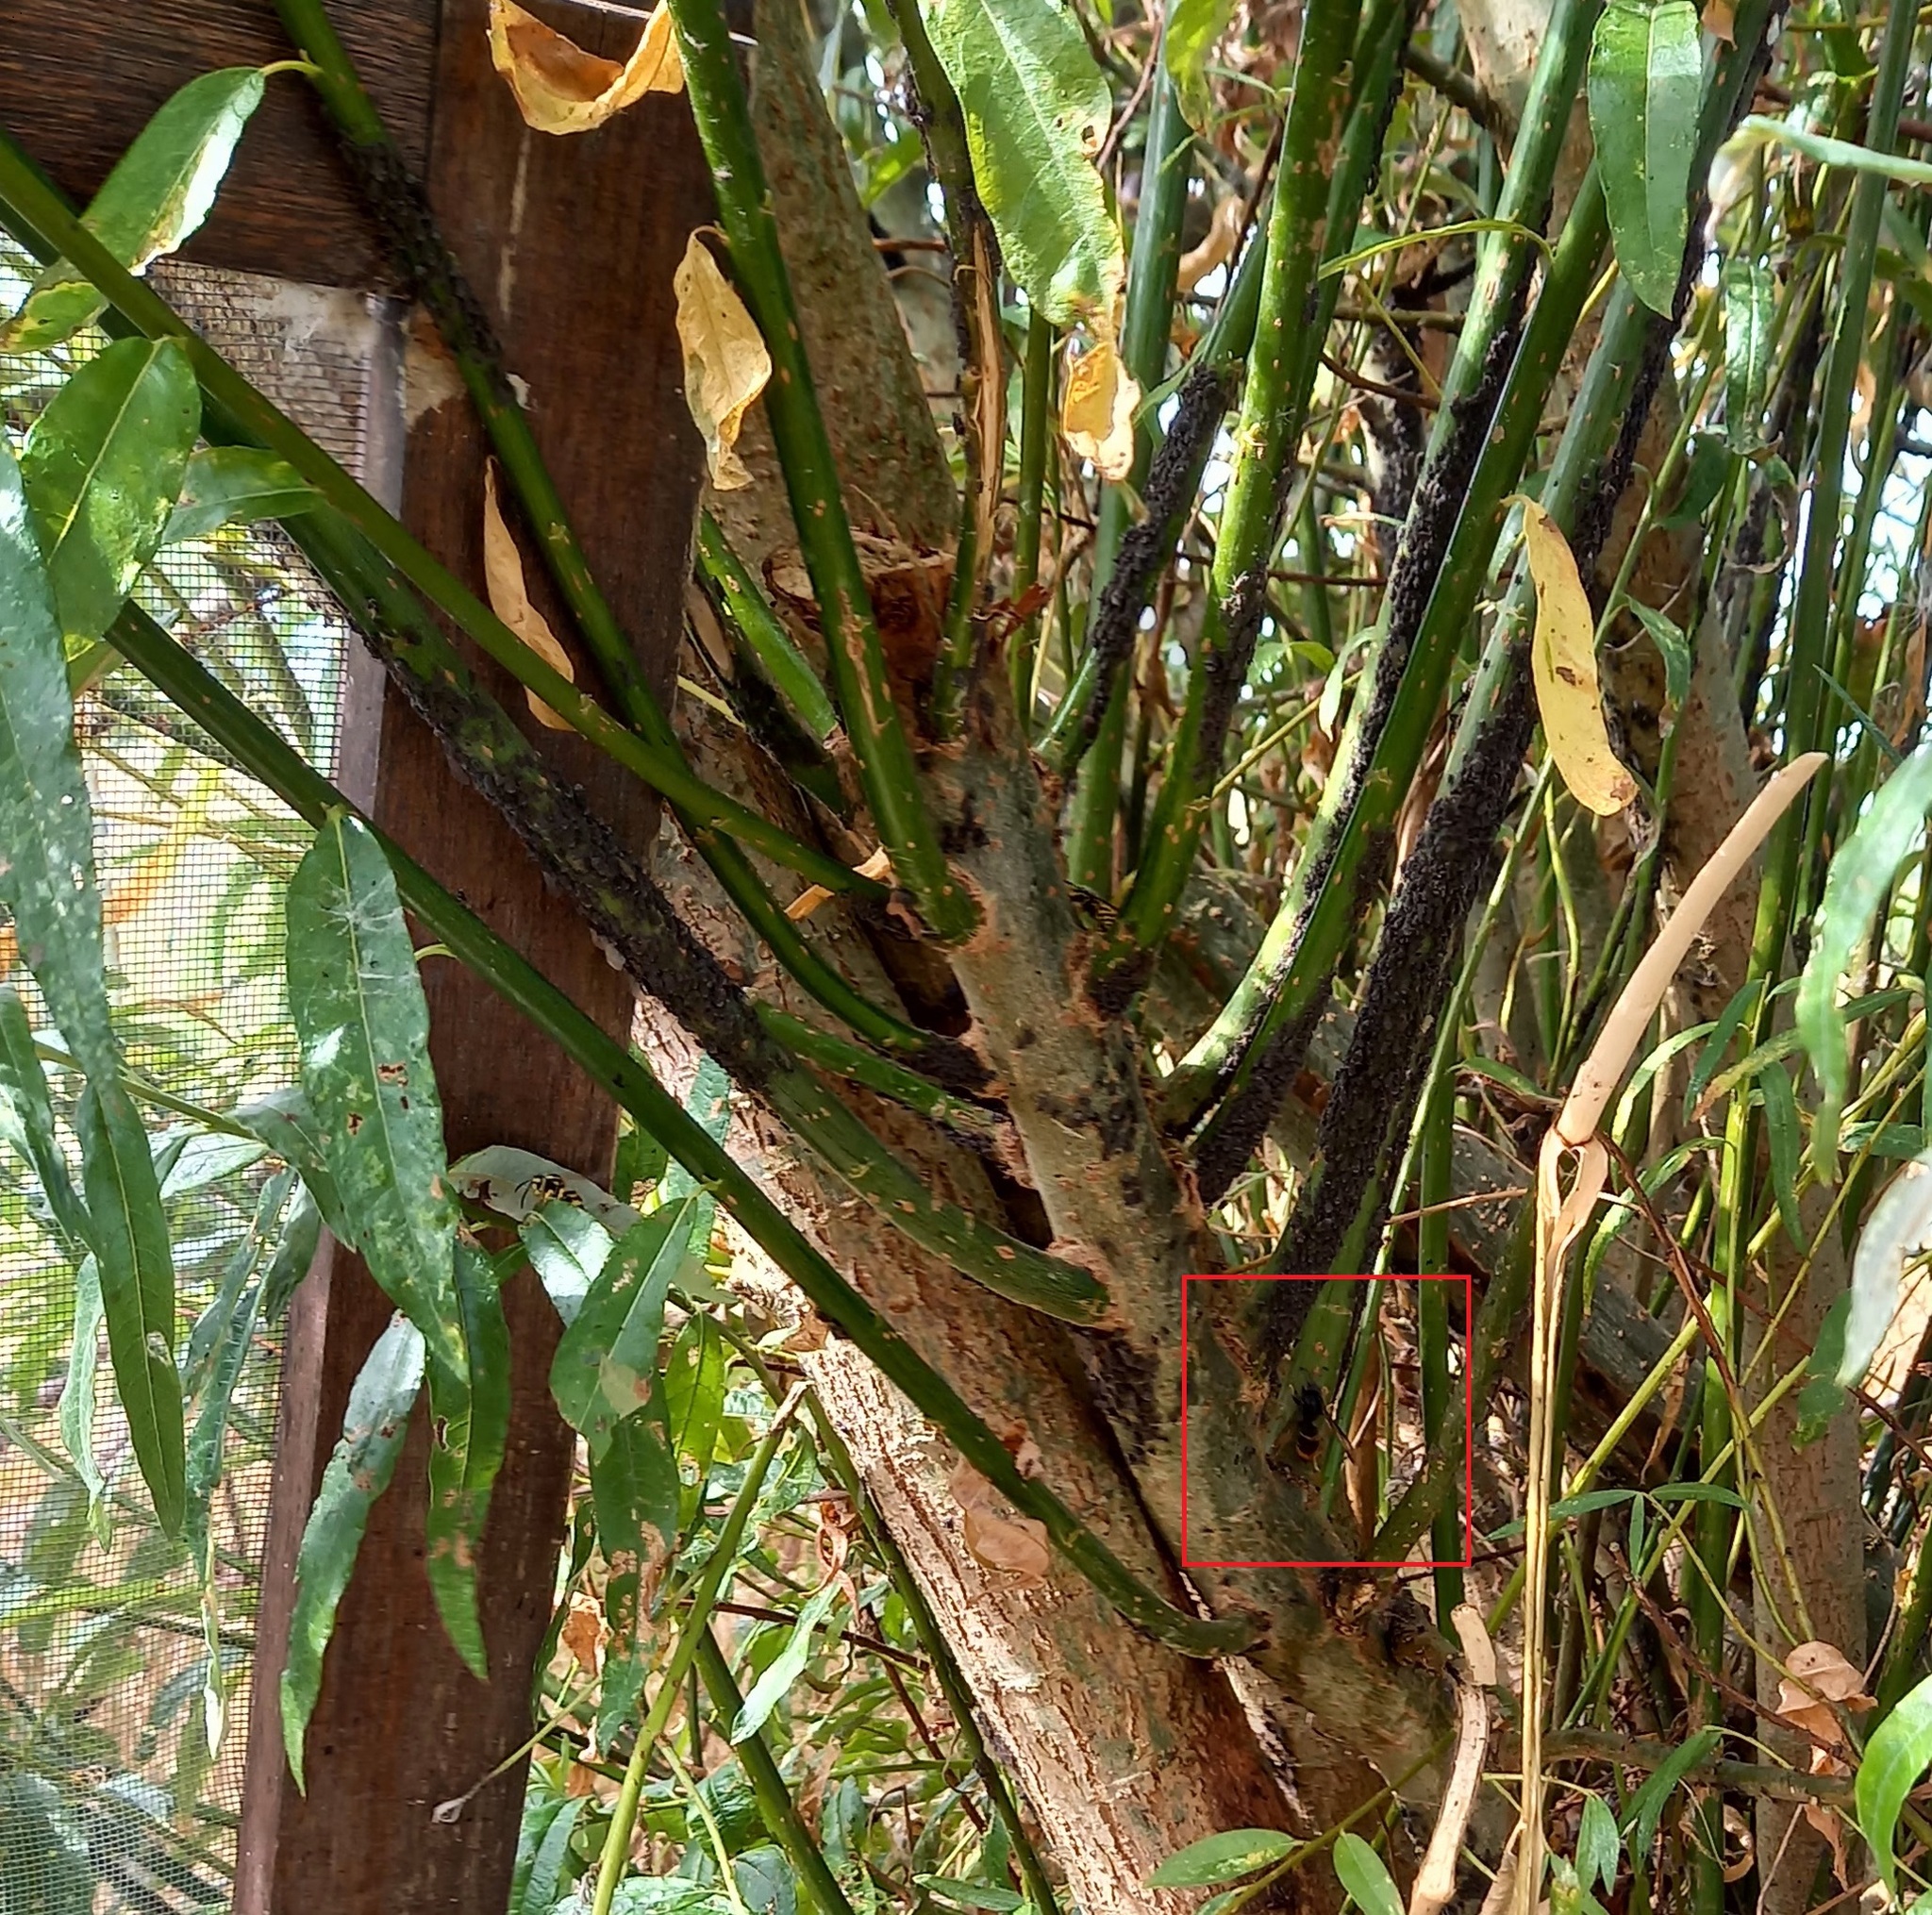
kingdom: Animalia
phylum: Arthropoda
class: Insecta
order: Hymenoptera
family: Vespidae
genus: Vespa
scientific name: Vespa velutina
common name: Asian hornet
